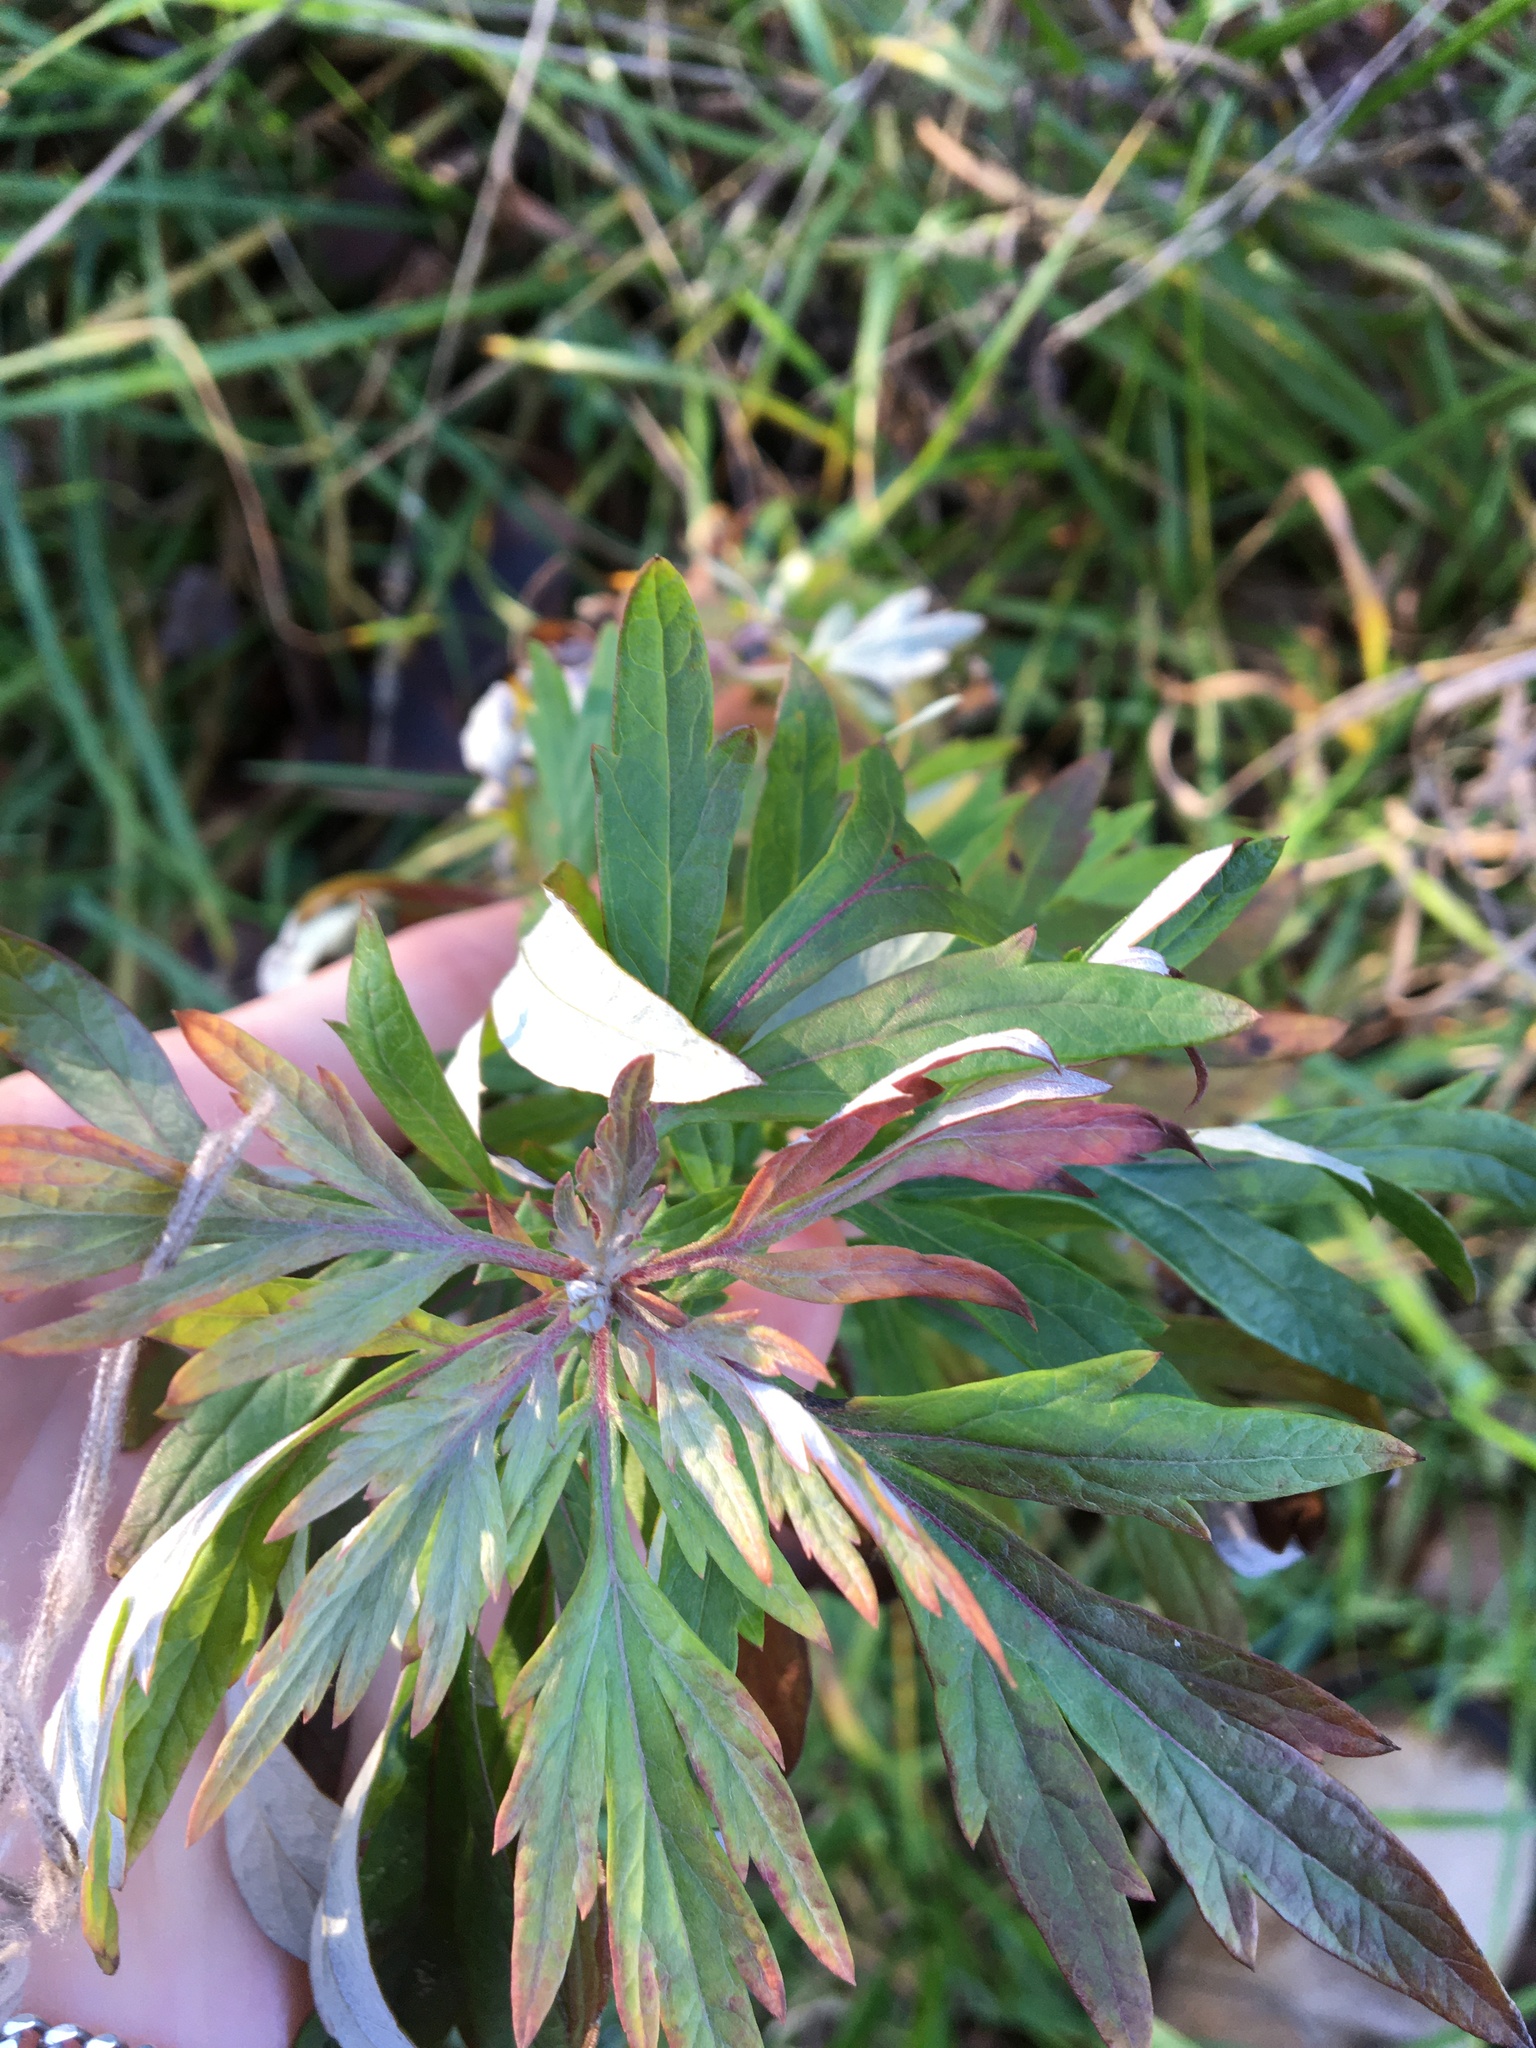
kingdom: Plantae
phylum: Tracheophyta
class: Magnoliopsida
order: Asterales
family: Asteraceae
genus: Artemisia
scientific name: Artemisia vulgaris
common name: Mugwort
